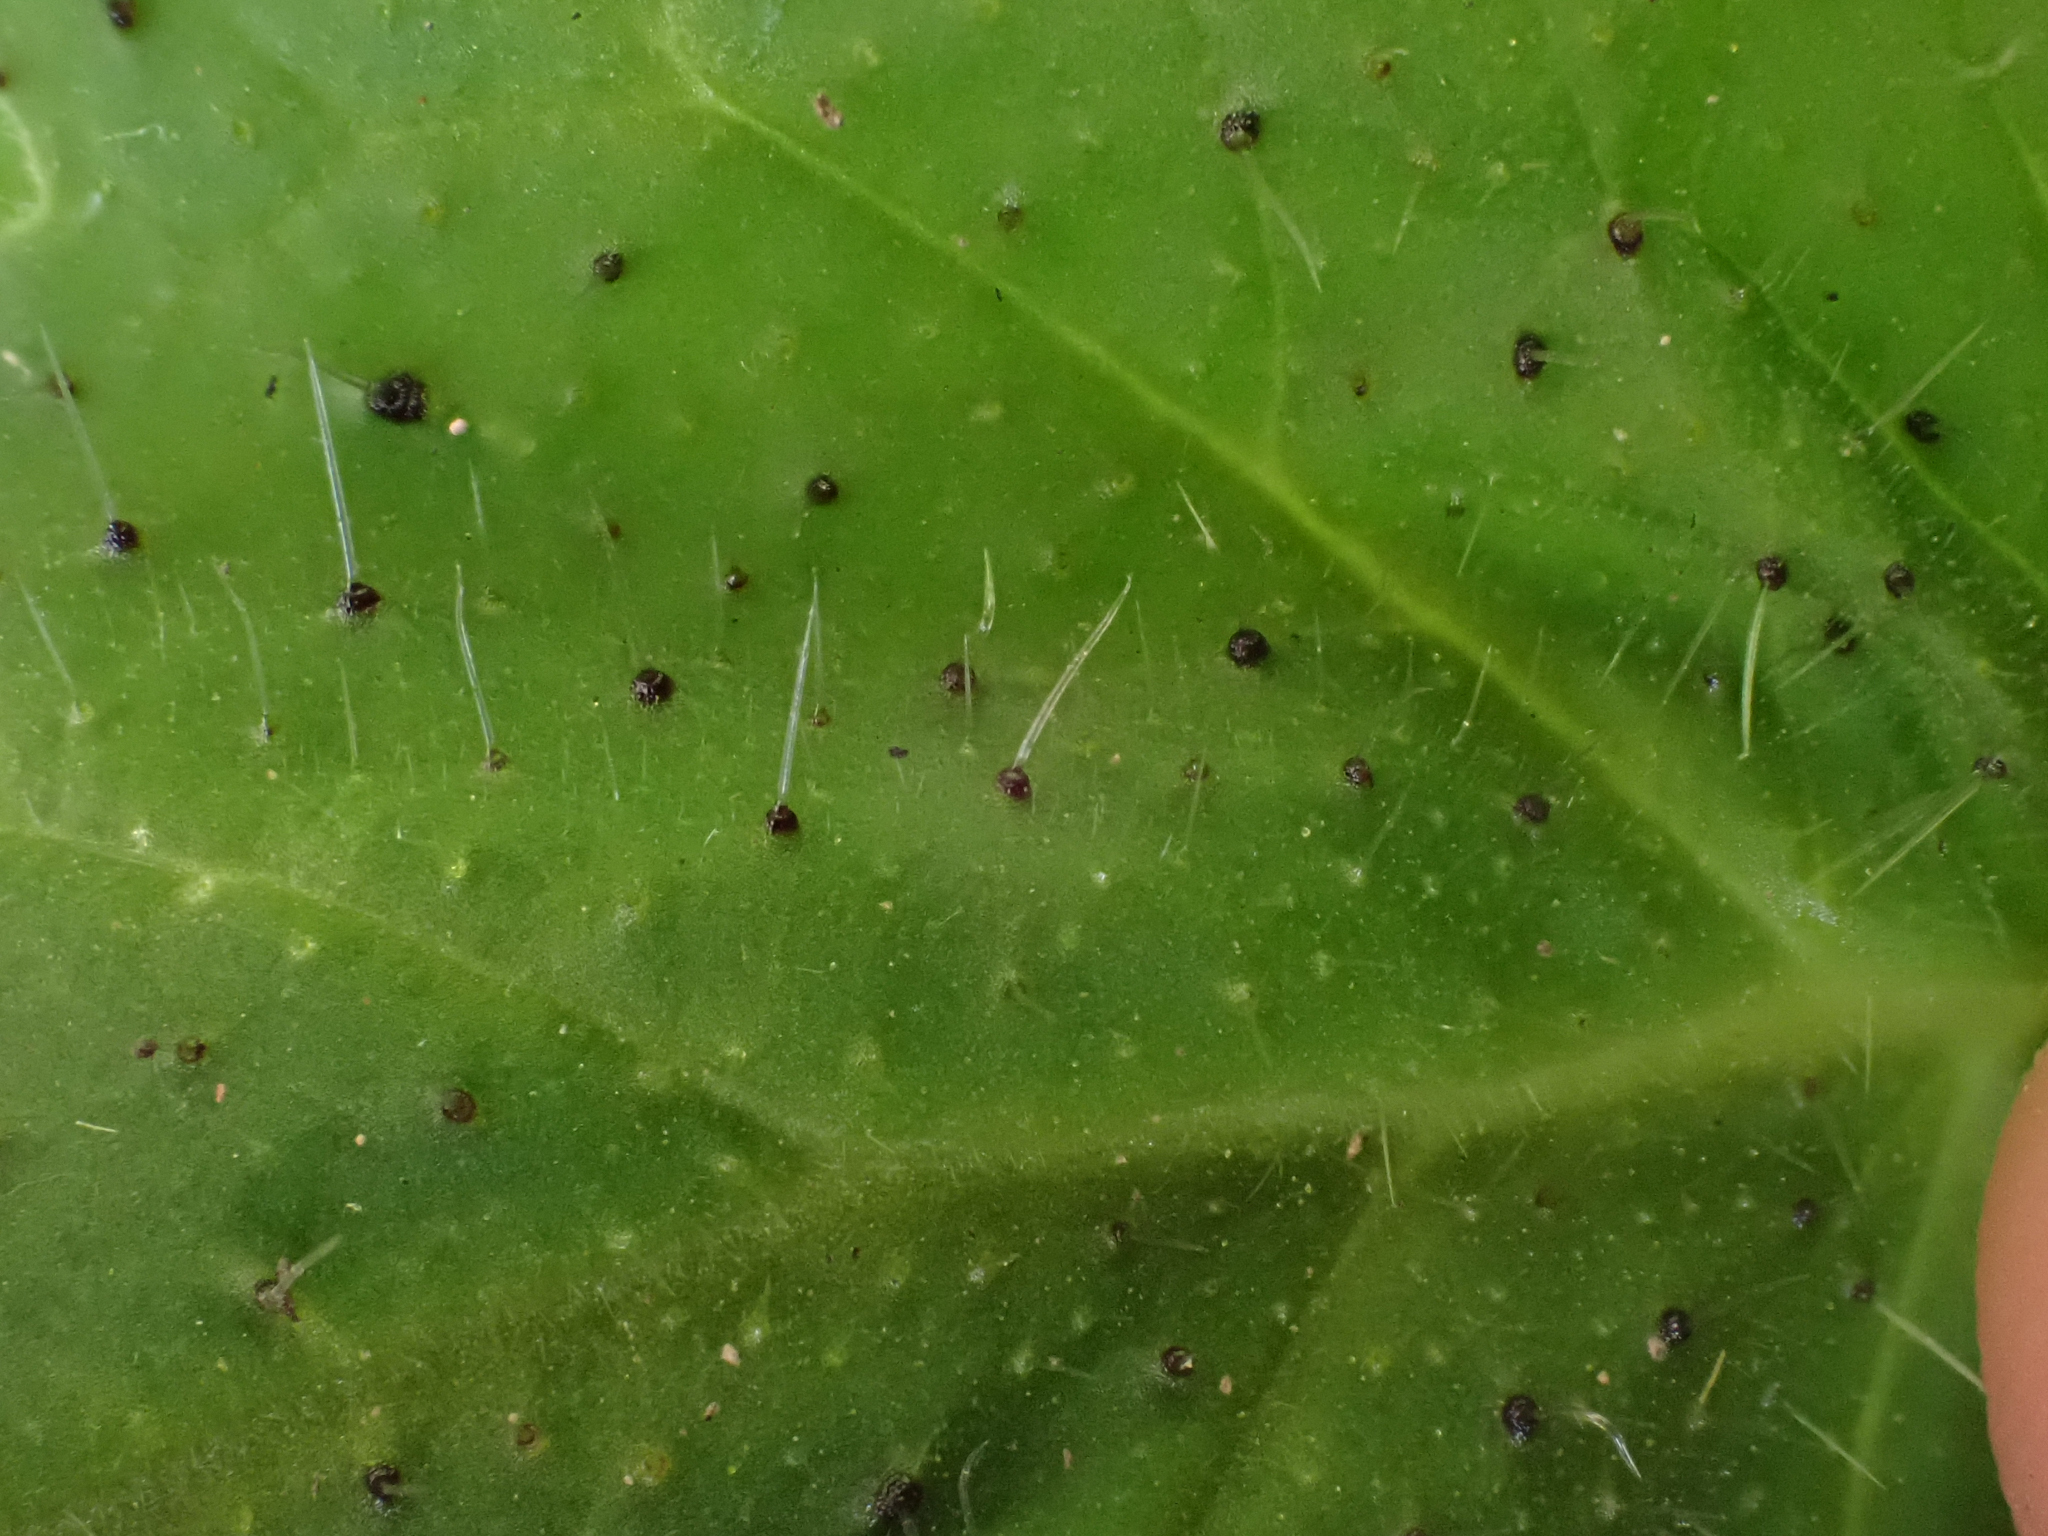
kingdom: Plantae
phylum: Tracheophyta
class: Magnoliopsida
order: Boraginales
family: Hydrophyllaceae
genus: Phacelia
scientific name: Phacelia malvifolia
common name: Mallow-leaf phacelia
